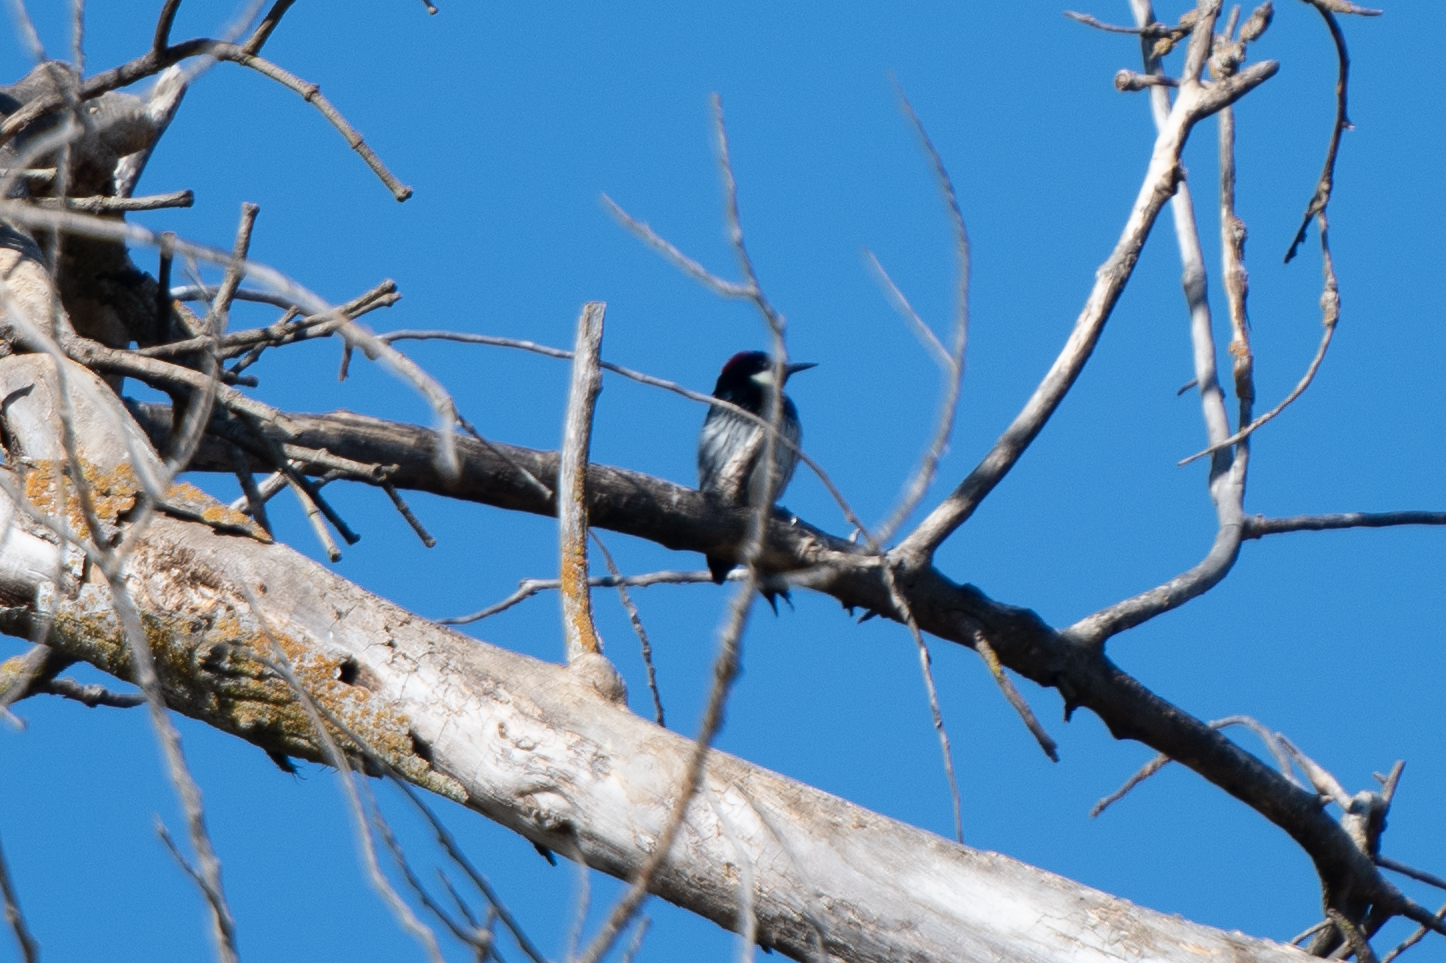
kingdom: Animalia
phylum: Chordata
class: Aves
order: Piciformes
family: Picidae
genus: Melanerpes
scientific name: Melanerpes formicivorus
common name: Acorn woodpecker
